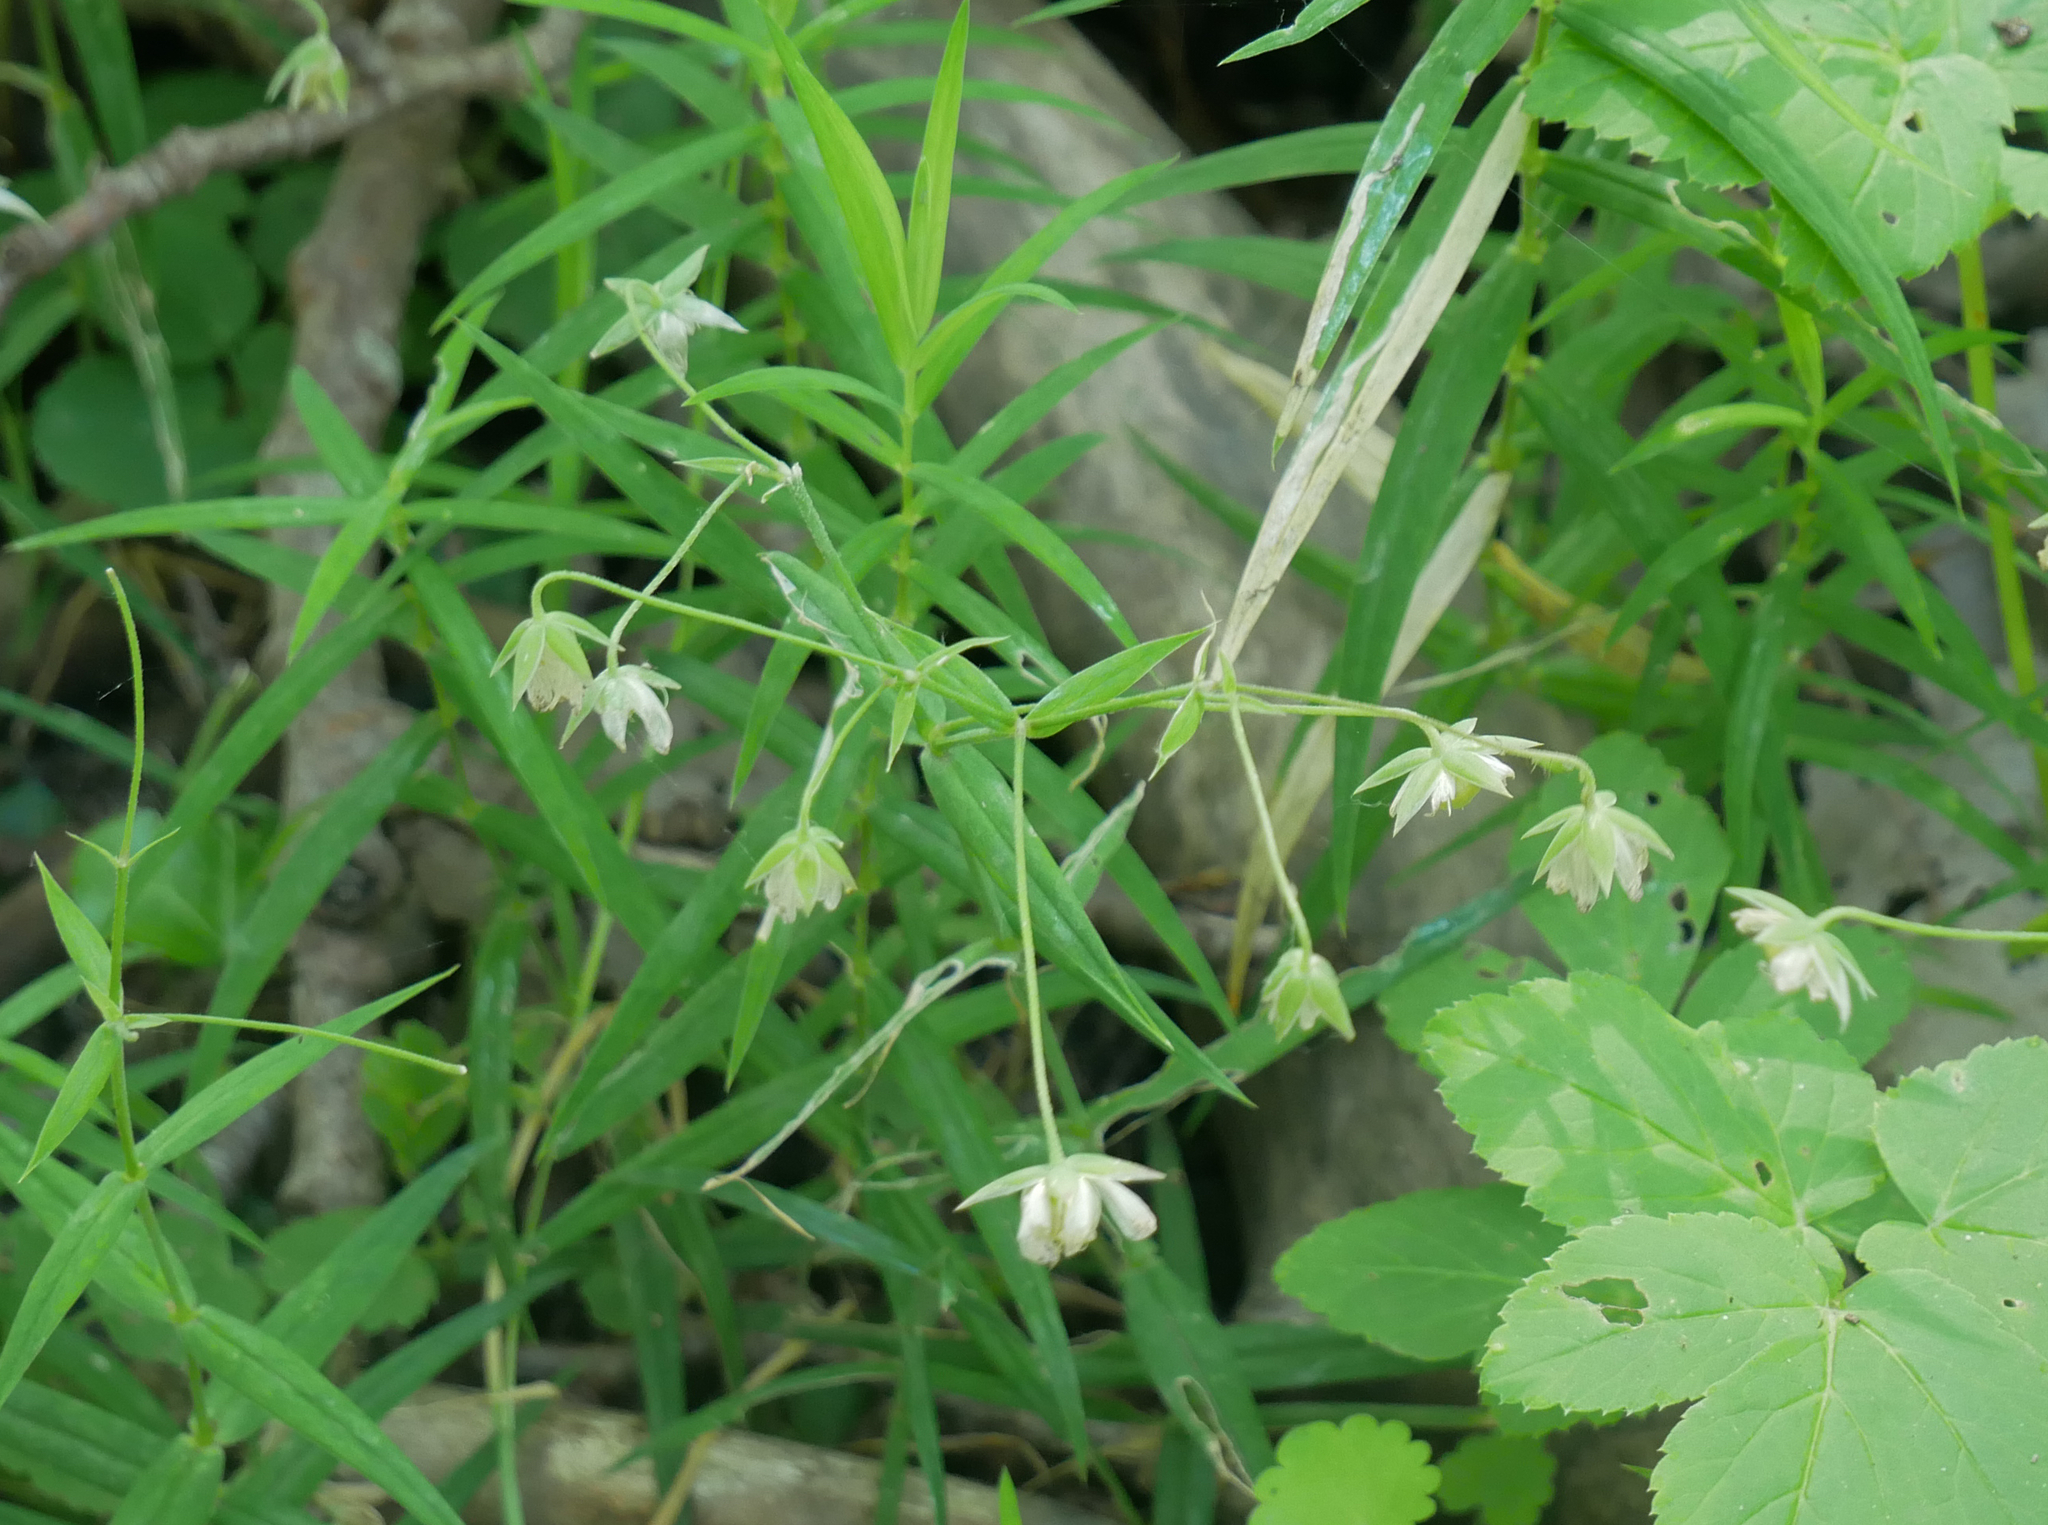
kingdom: Plantae
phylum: Tracheophyta
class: Magnoliopsida
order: Caryophyllales
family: Caryophyllaceae
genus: Rabelera
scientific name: Rabelera holostea
